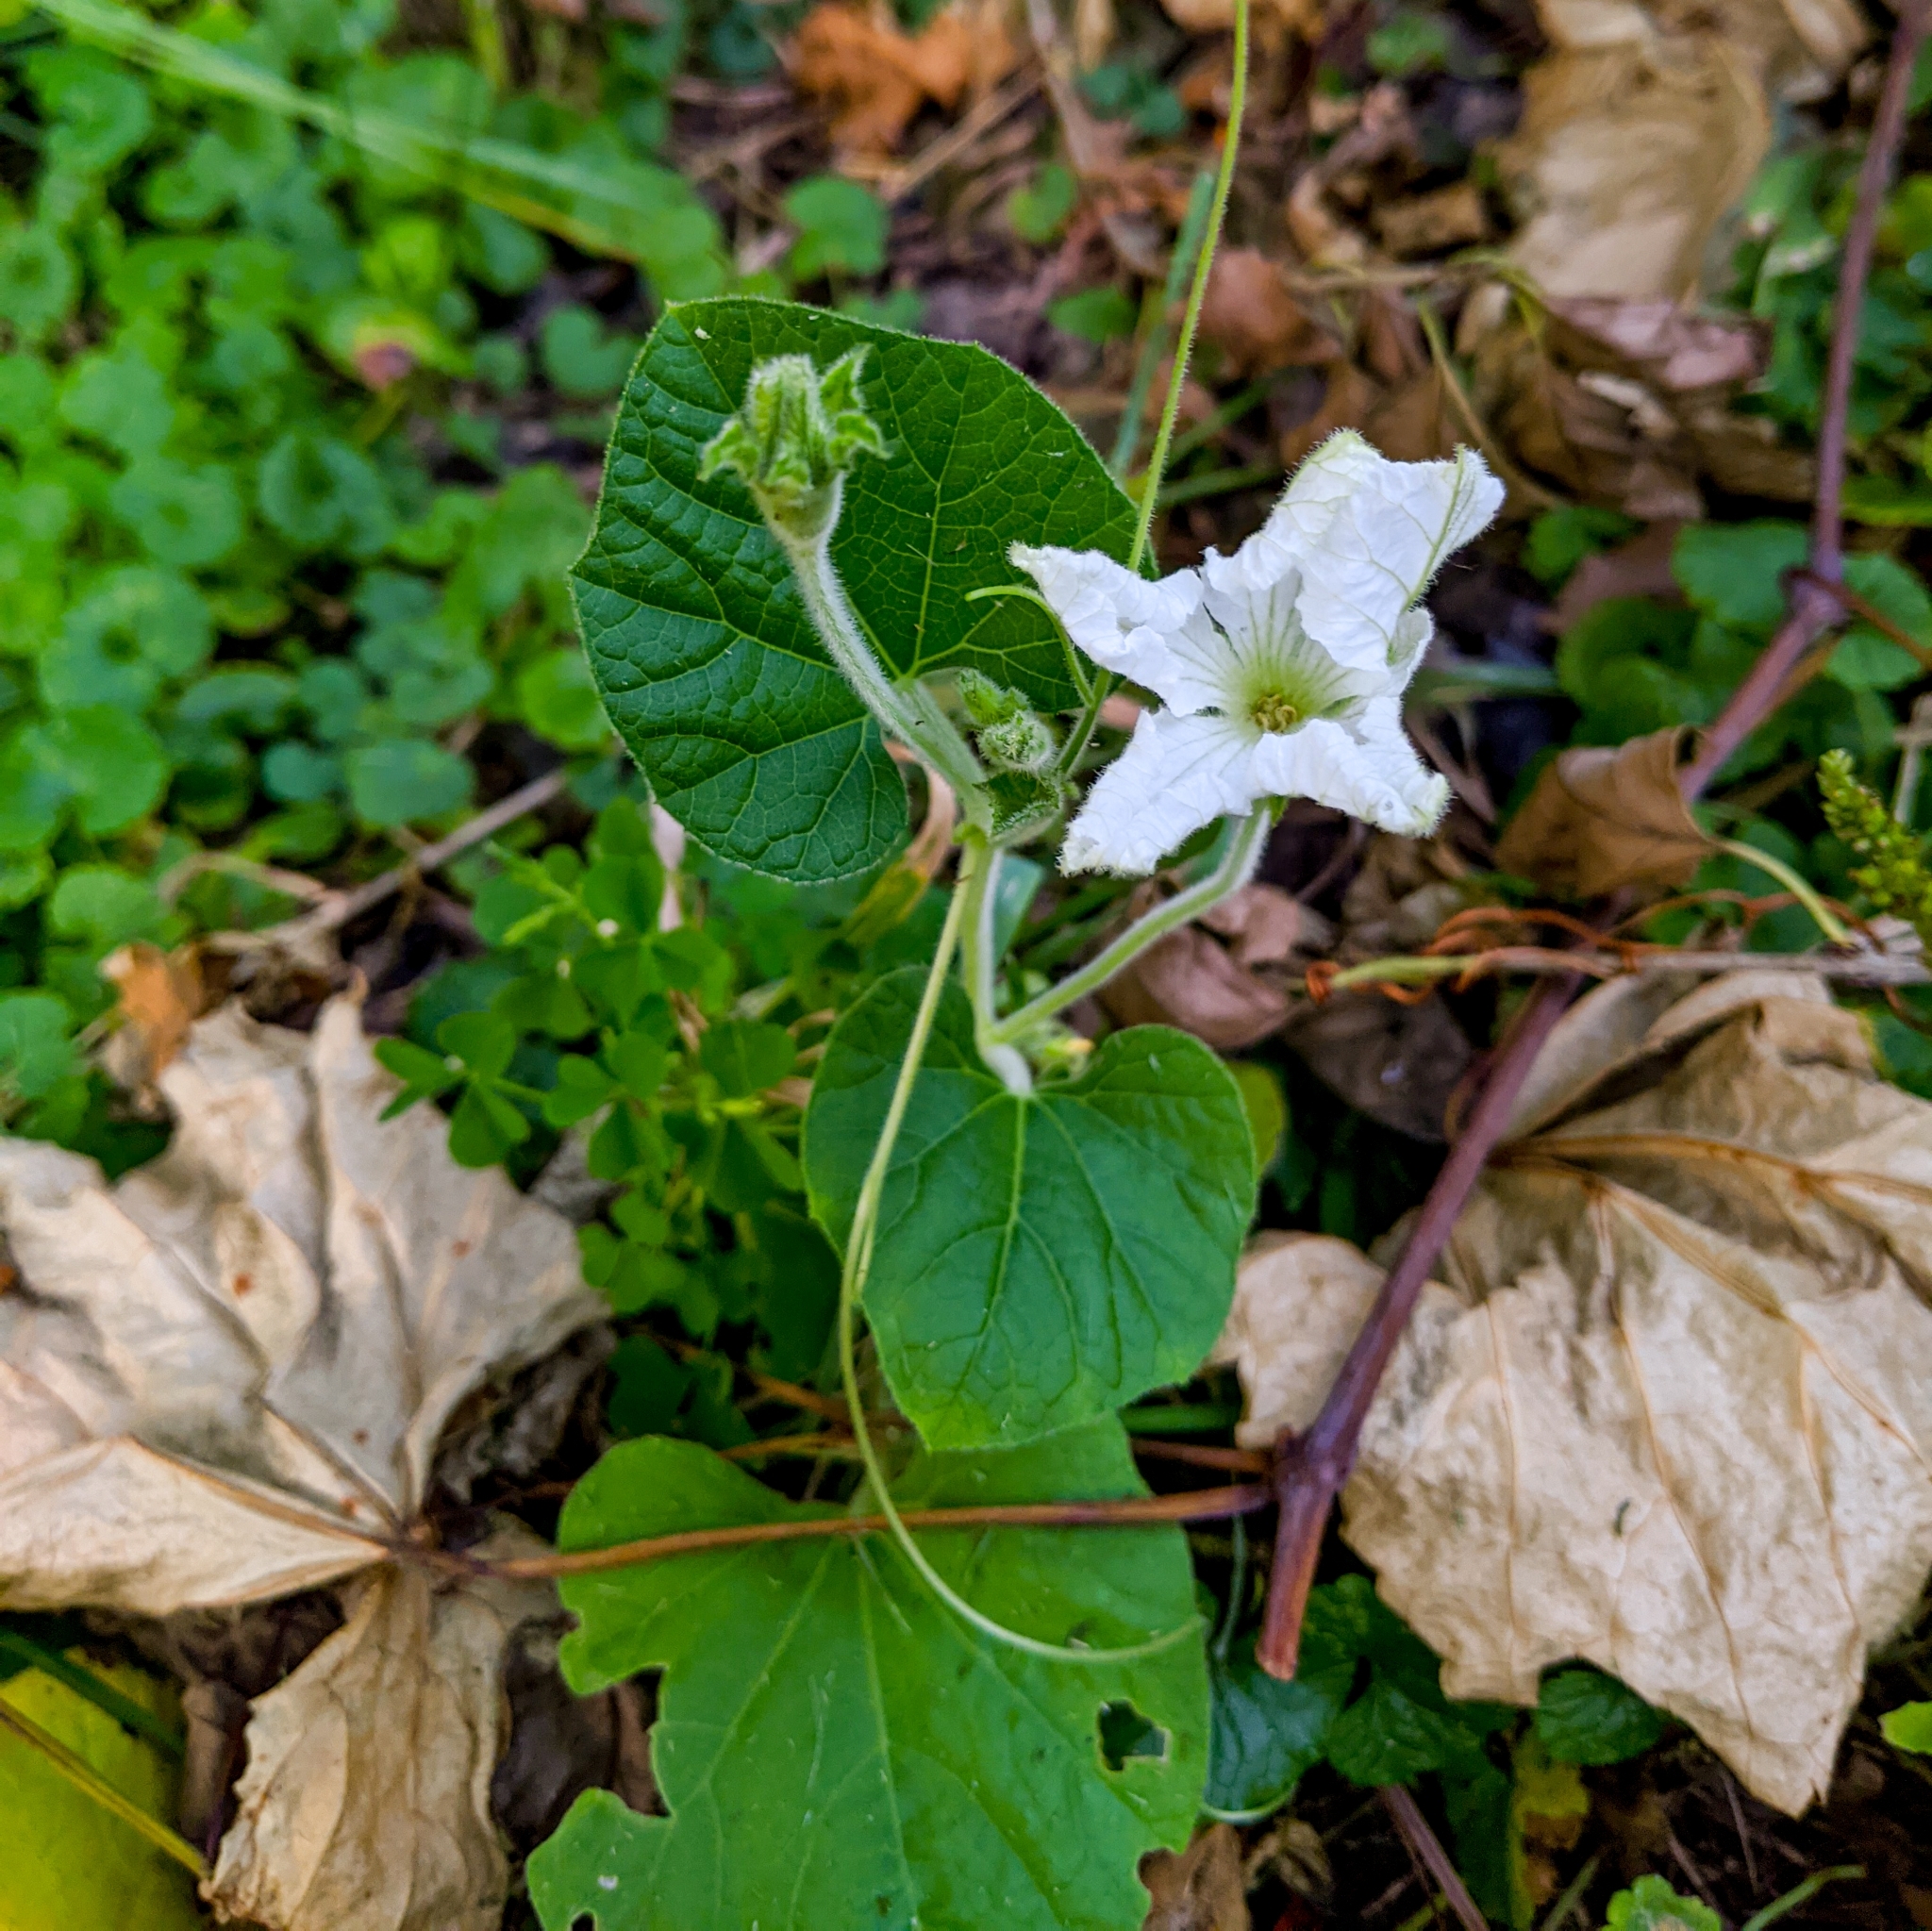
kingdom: Plantae
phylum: Tracheophyta
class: Magnoliopsida
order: Cucurbitales
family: Cucurbitaceae
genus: Lagenaria
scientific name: Lagenaria siceraria
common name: Bottle gourd
